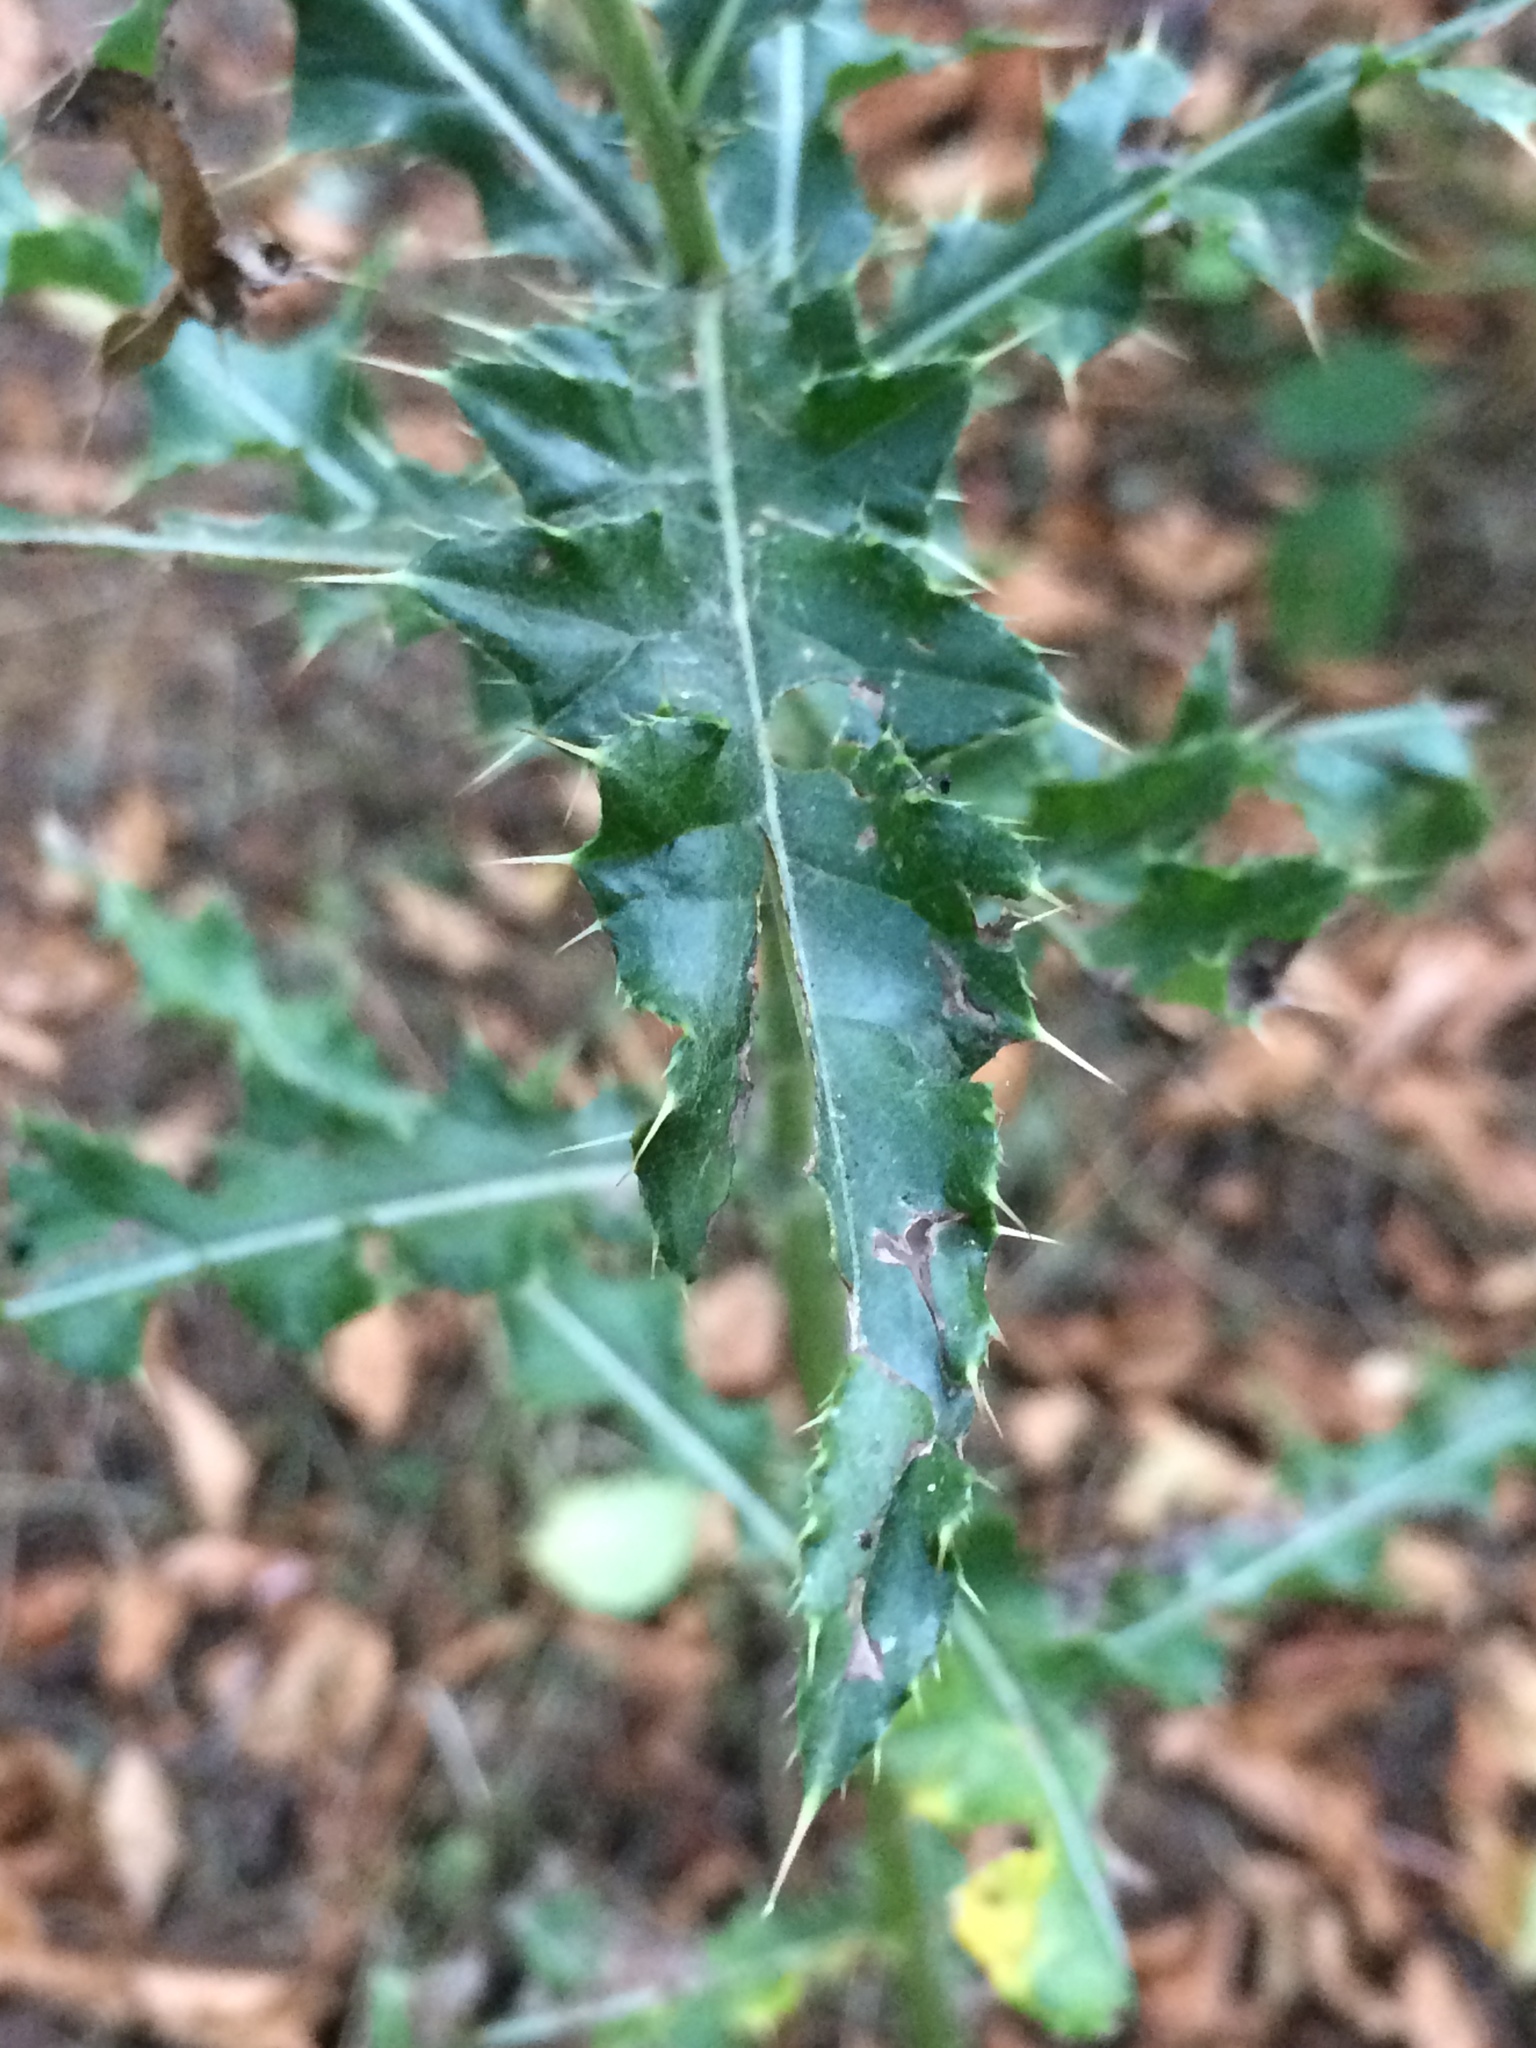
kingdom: Plantae
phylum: Tracheophyta
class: Magnoliopsida
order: Asterales
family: Asteraceae
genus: Cirsium
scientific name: Cirsium arvense
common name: Creeping thistle
